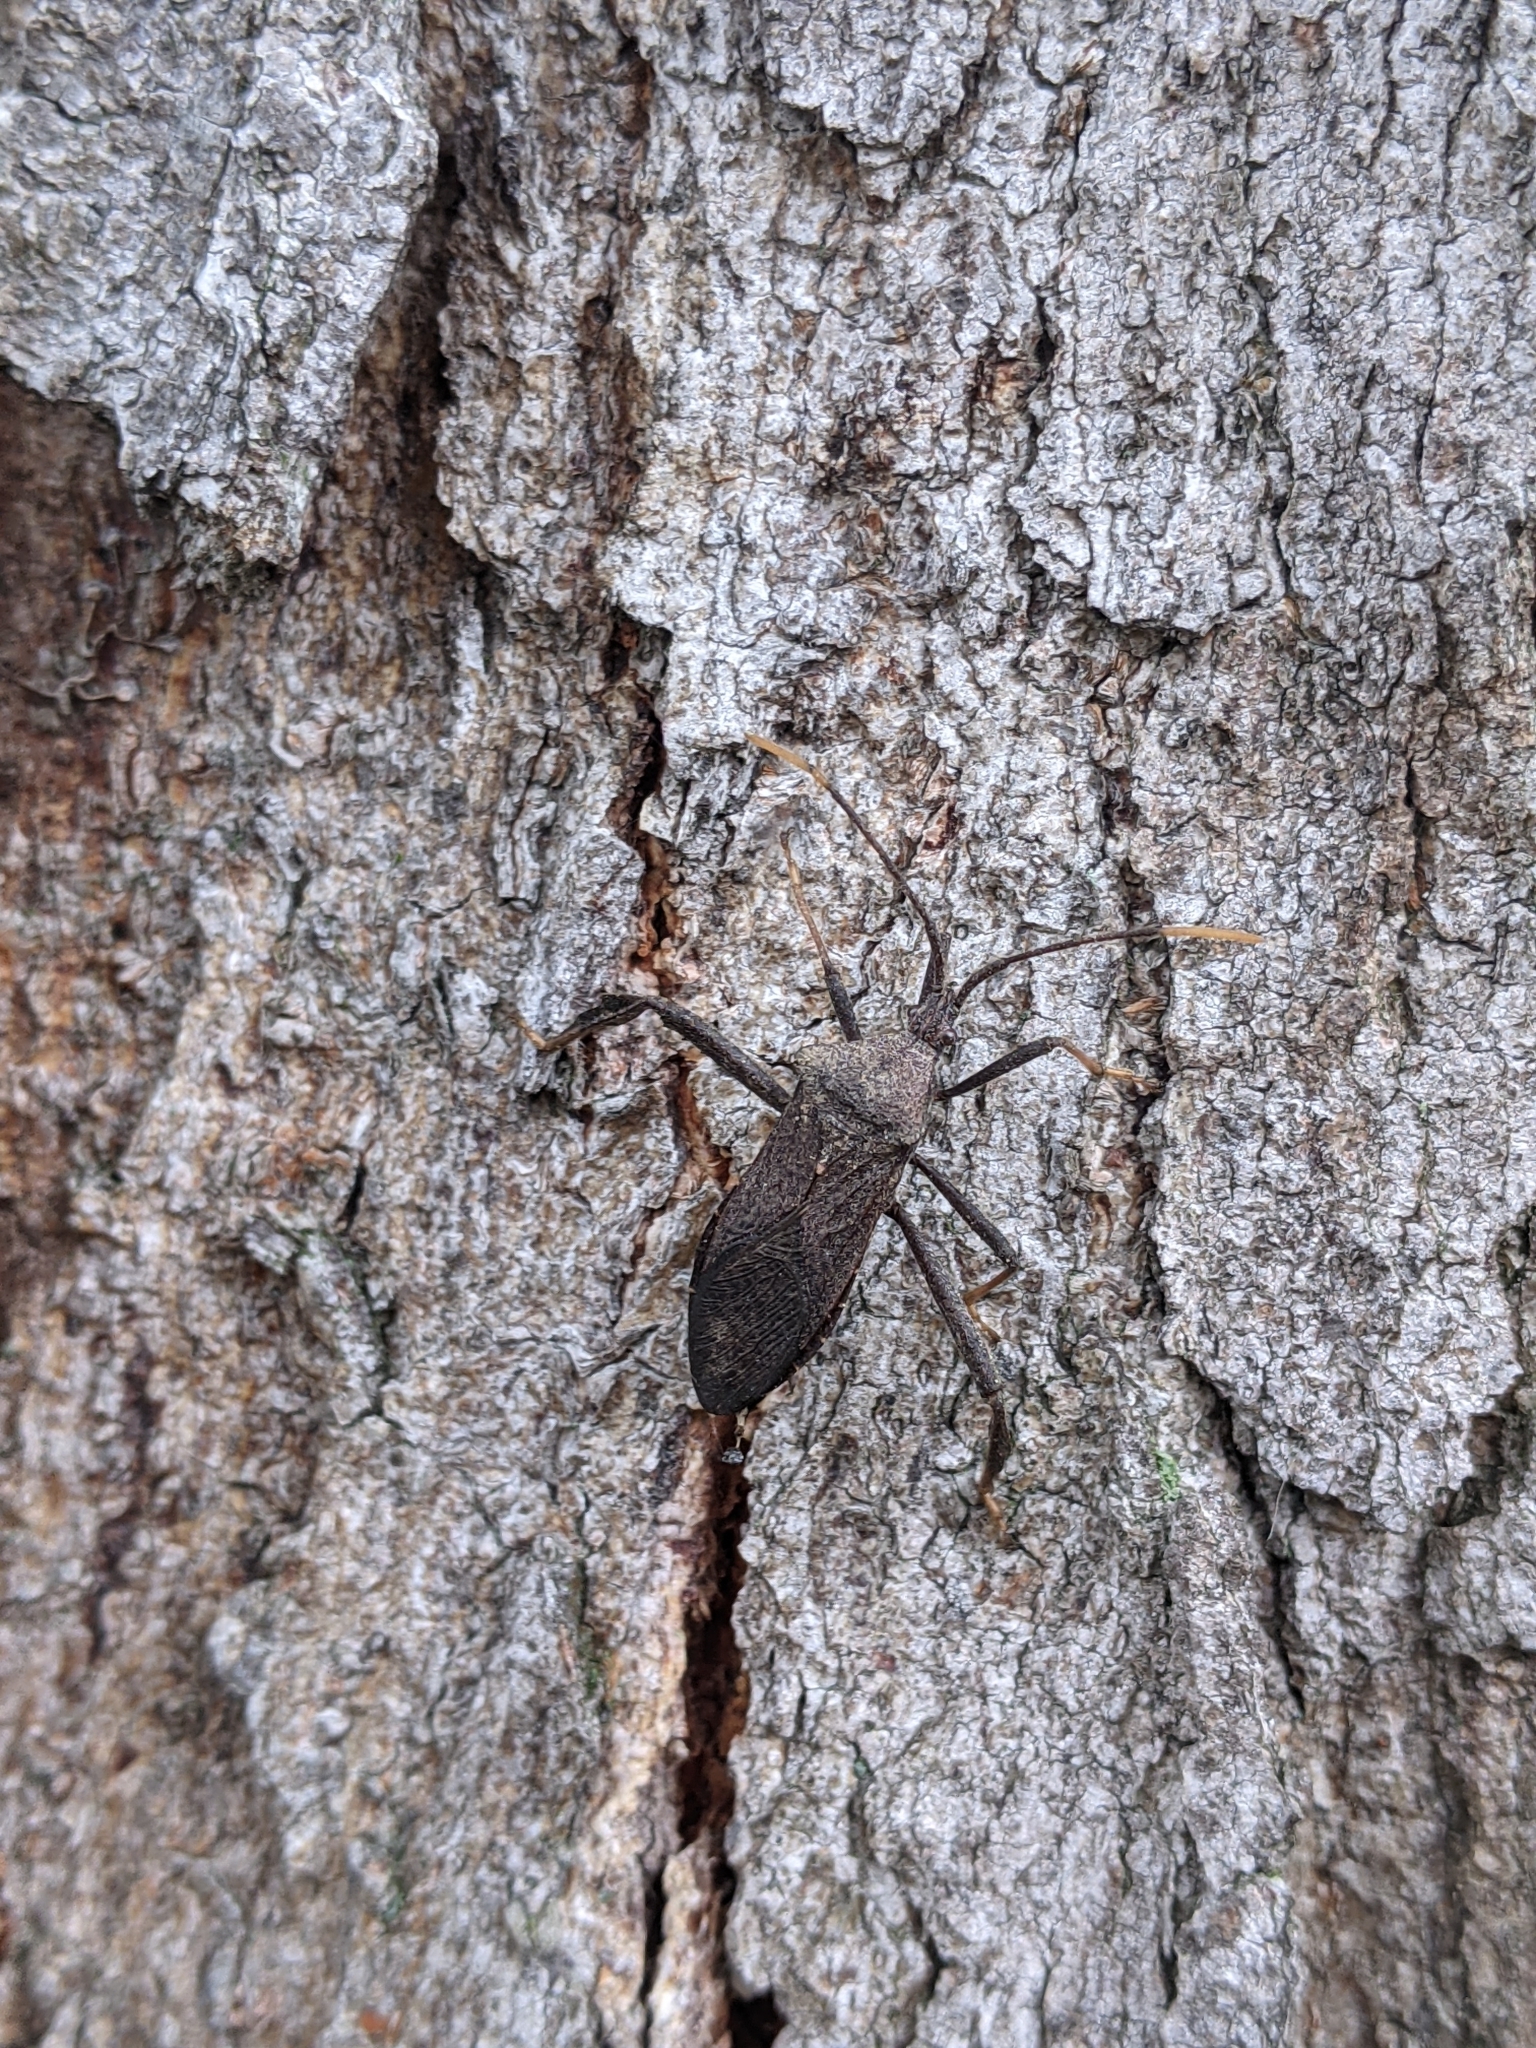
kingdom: Animalia
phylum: Arthropoda
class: Insecta
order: Hemiptera
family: Coreidae
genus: Acanthocephala
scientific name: Acanthocephala terminalis
